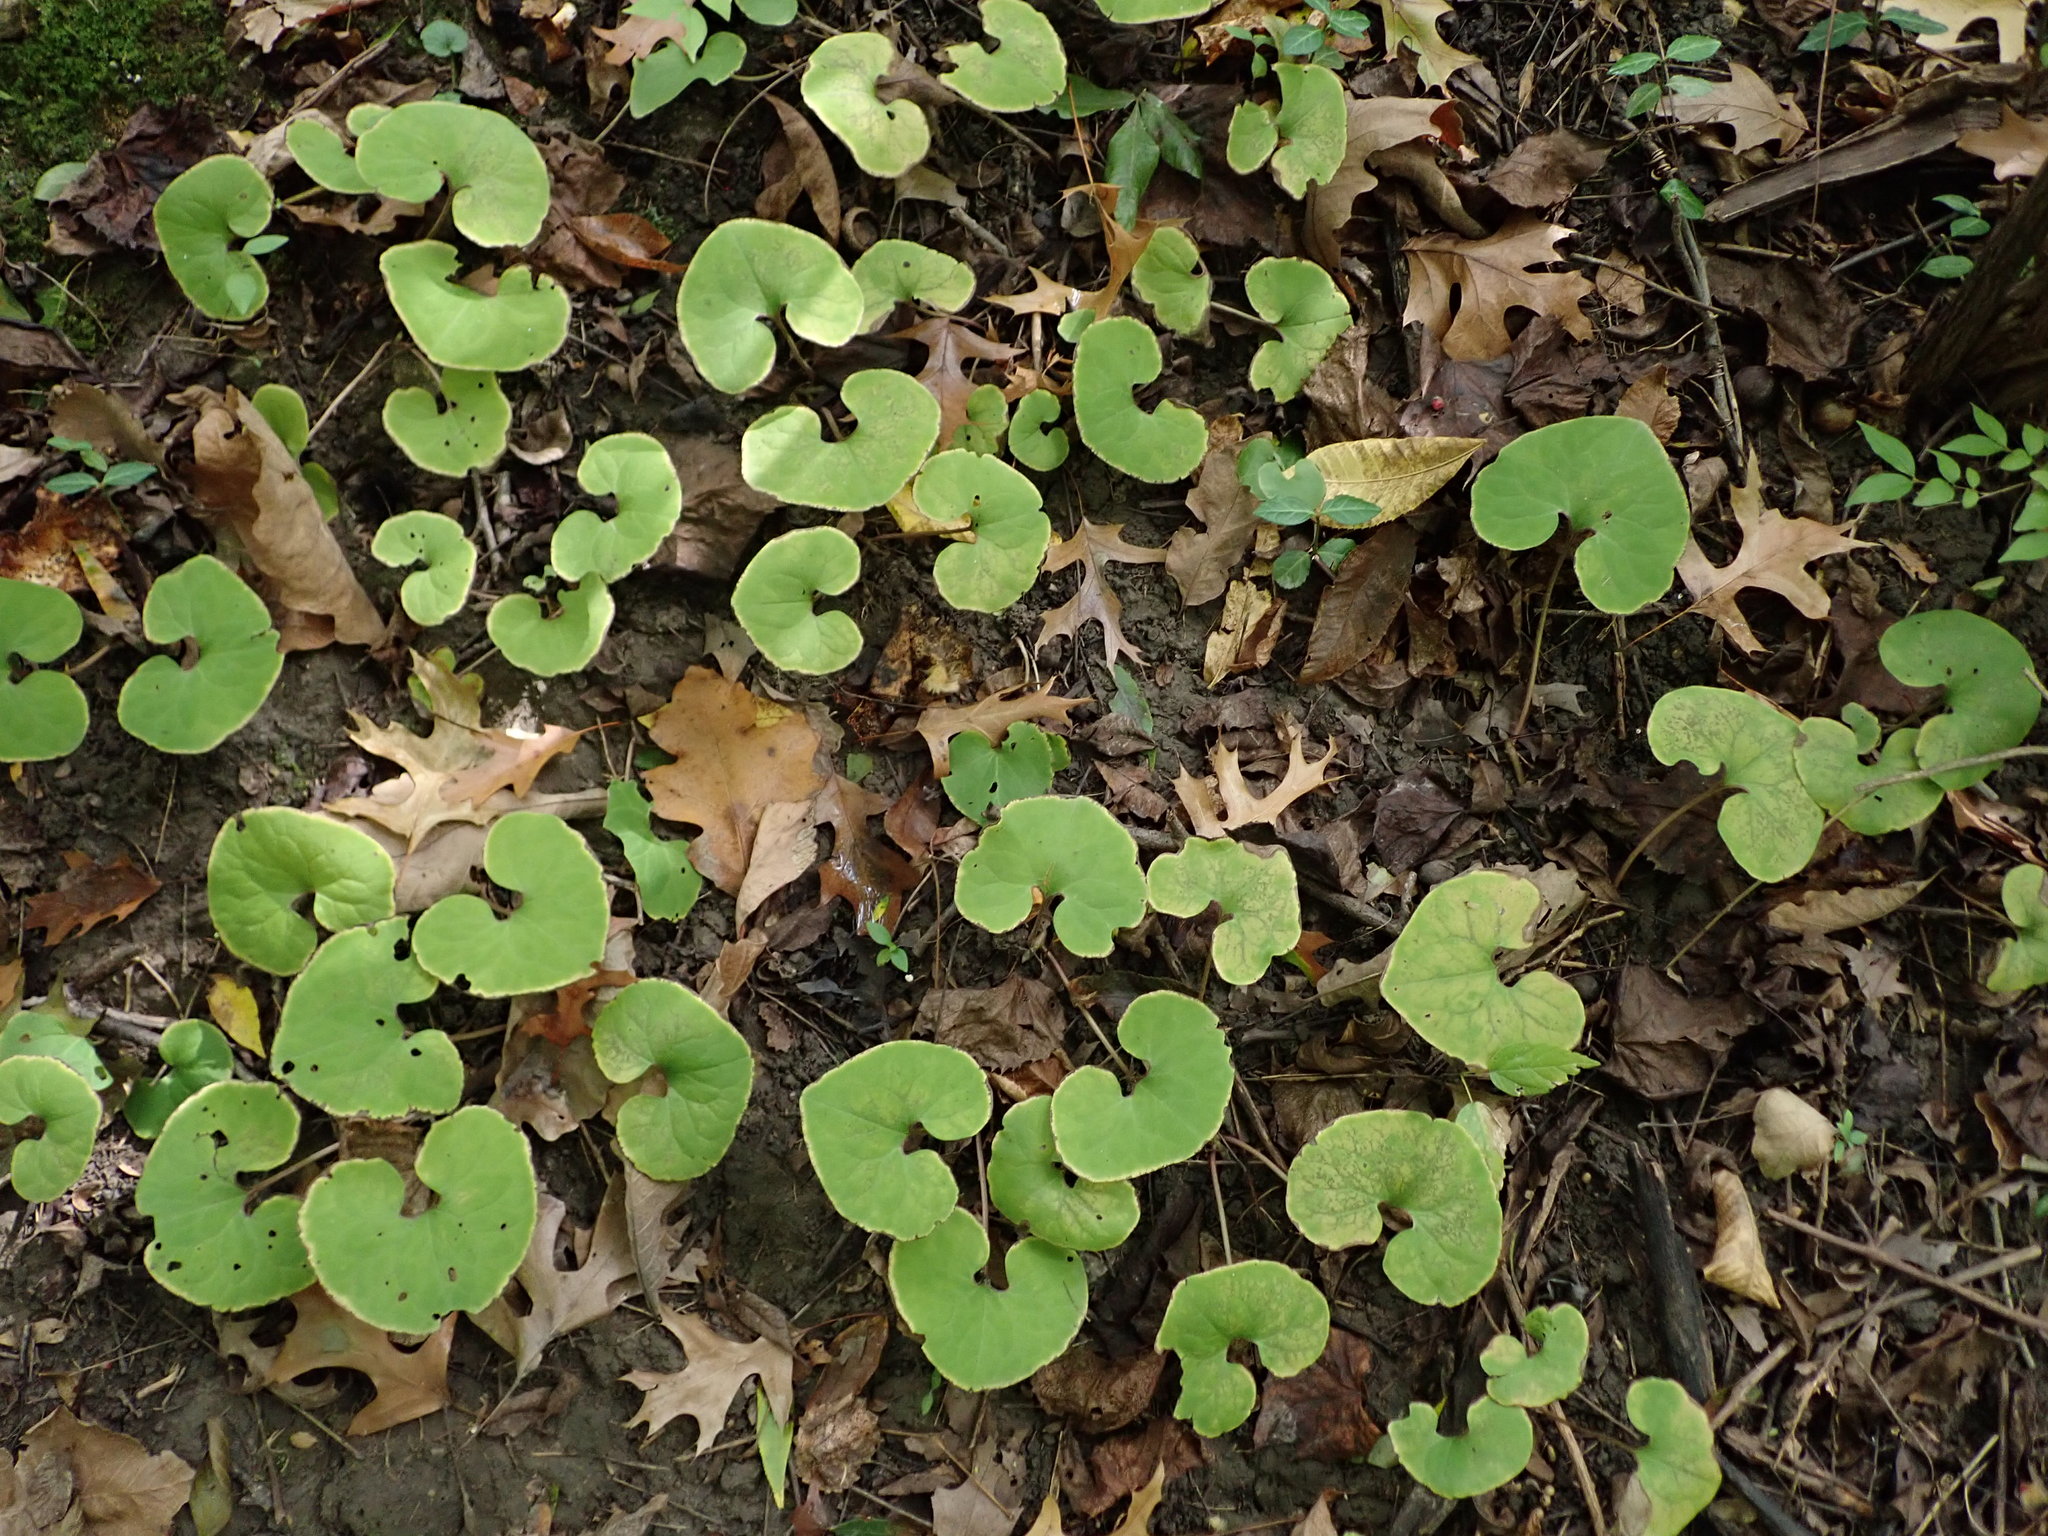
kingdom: Plantae
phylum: Tracheophyta
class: Magnoliopsida
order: Piperales
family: Aristolochiaceae
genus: Asarum
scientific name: Asarum canadense
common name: Wild ginger
